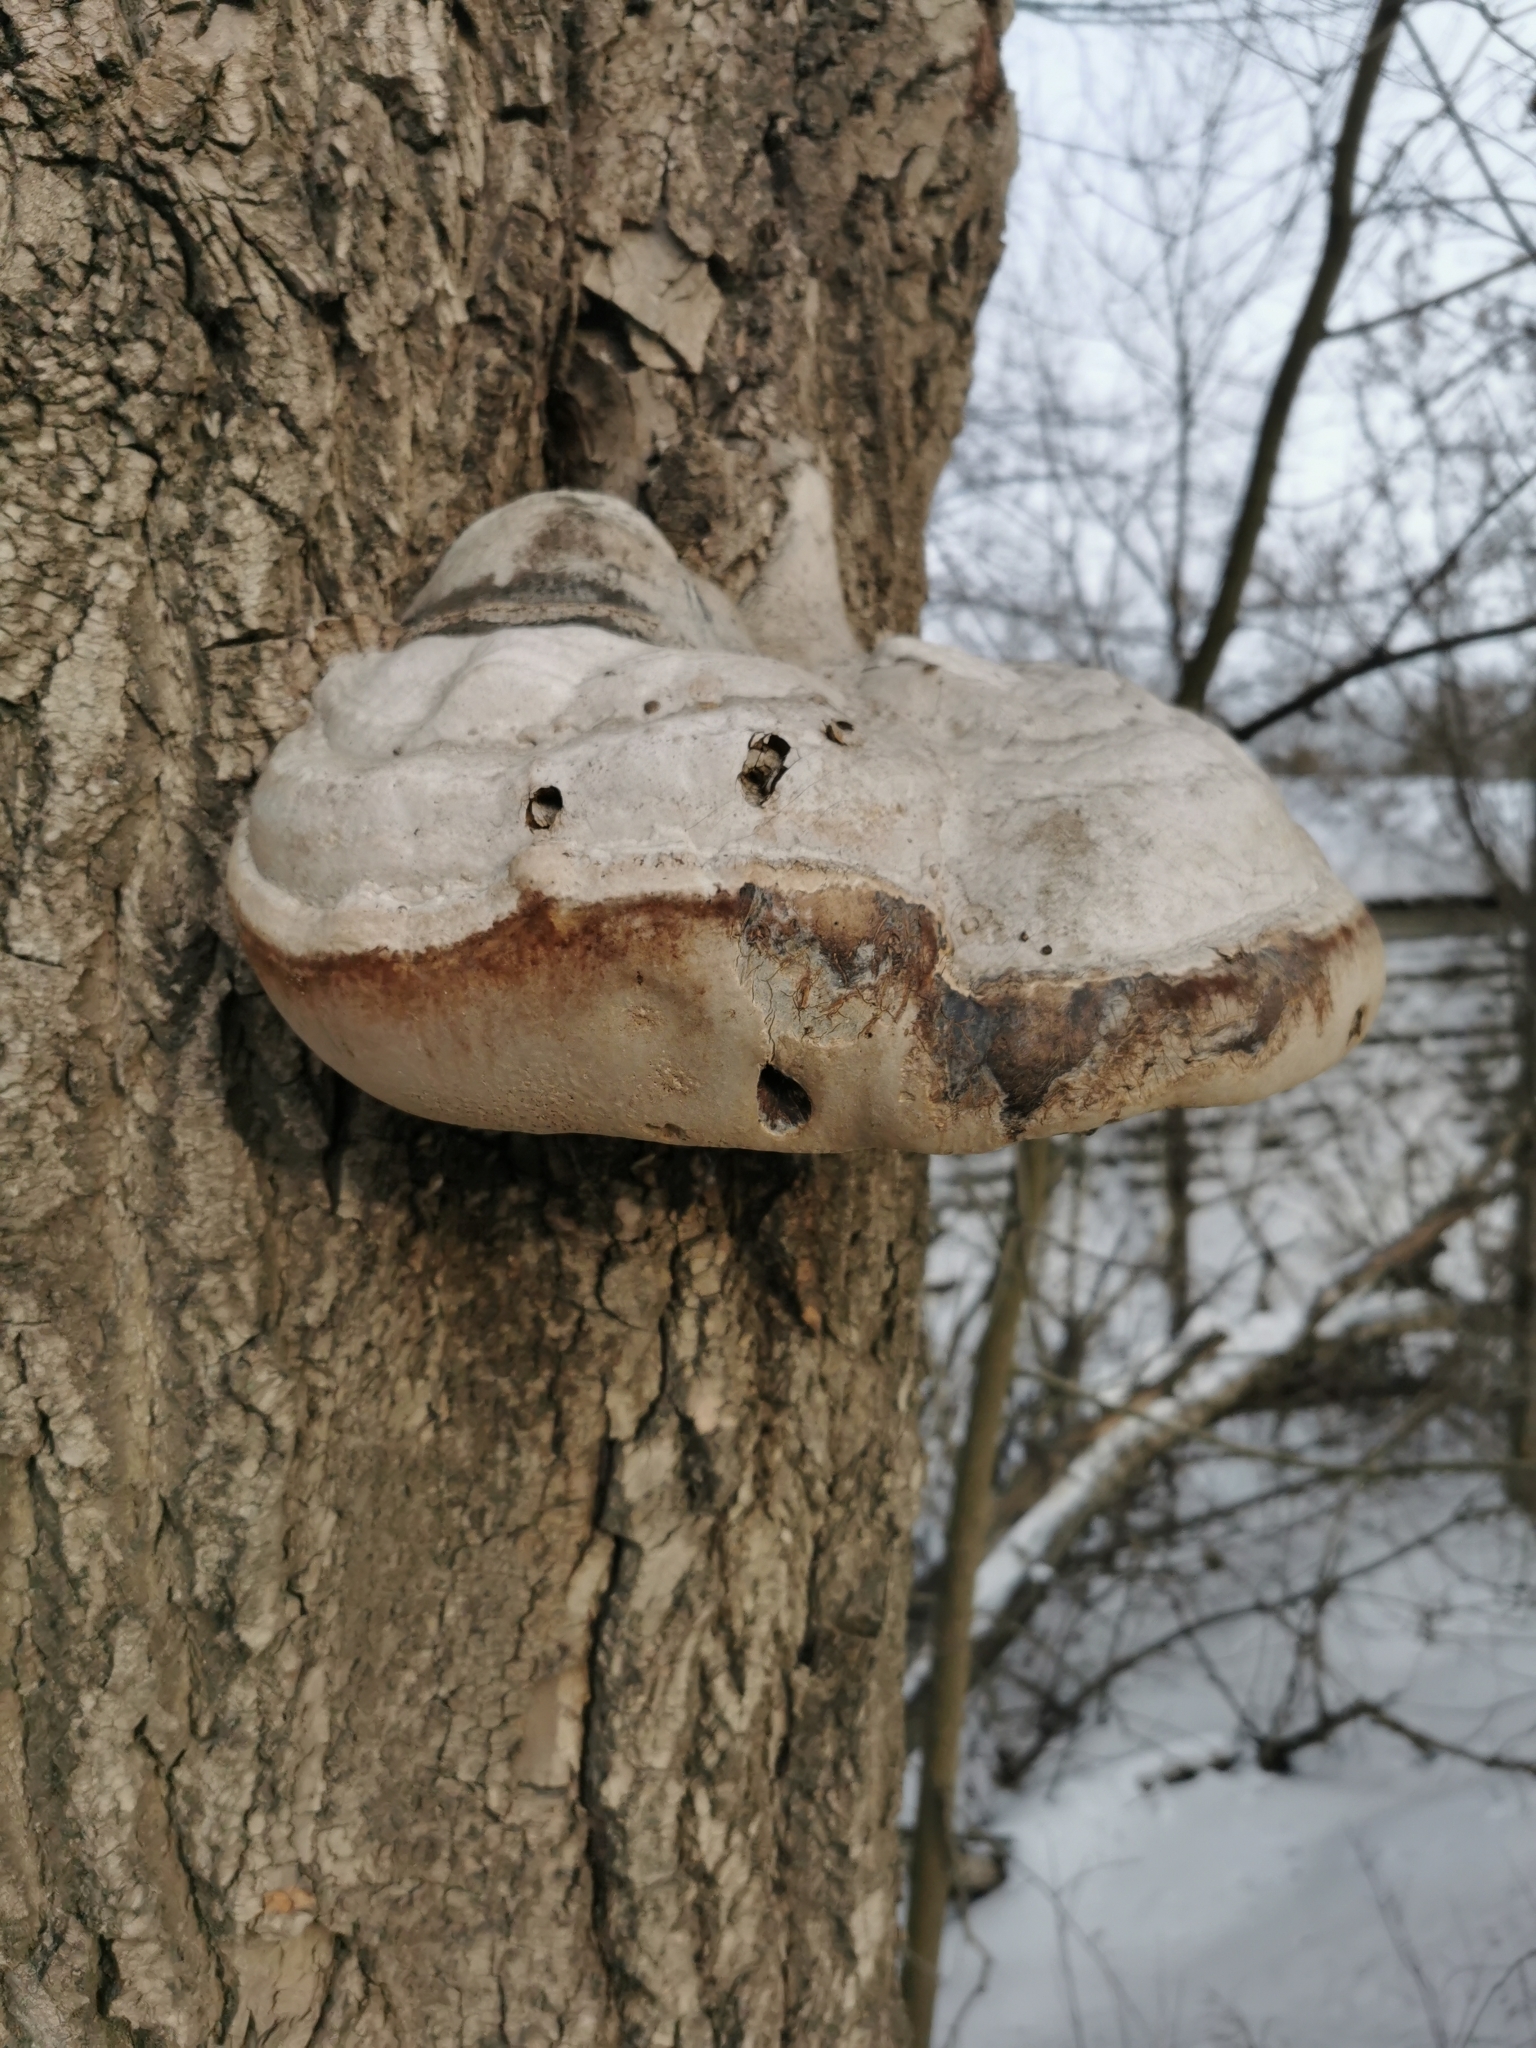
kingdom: Fungi
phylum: Basidiomycota
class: Agaricomycetes
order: Polyporales
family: Polyporaceae
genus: Fomes
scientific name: Fomes fomentarius
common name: Hoof fungus
